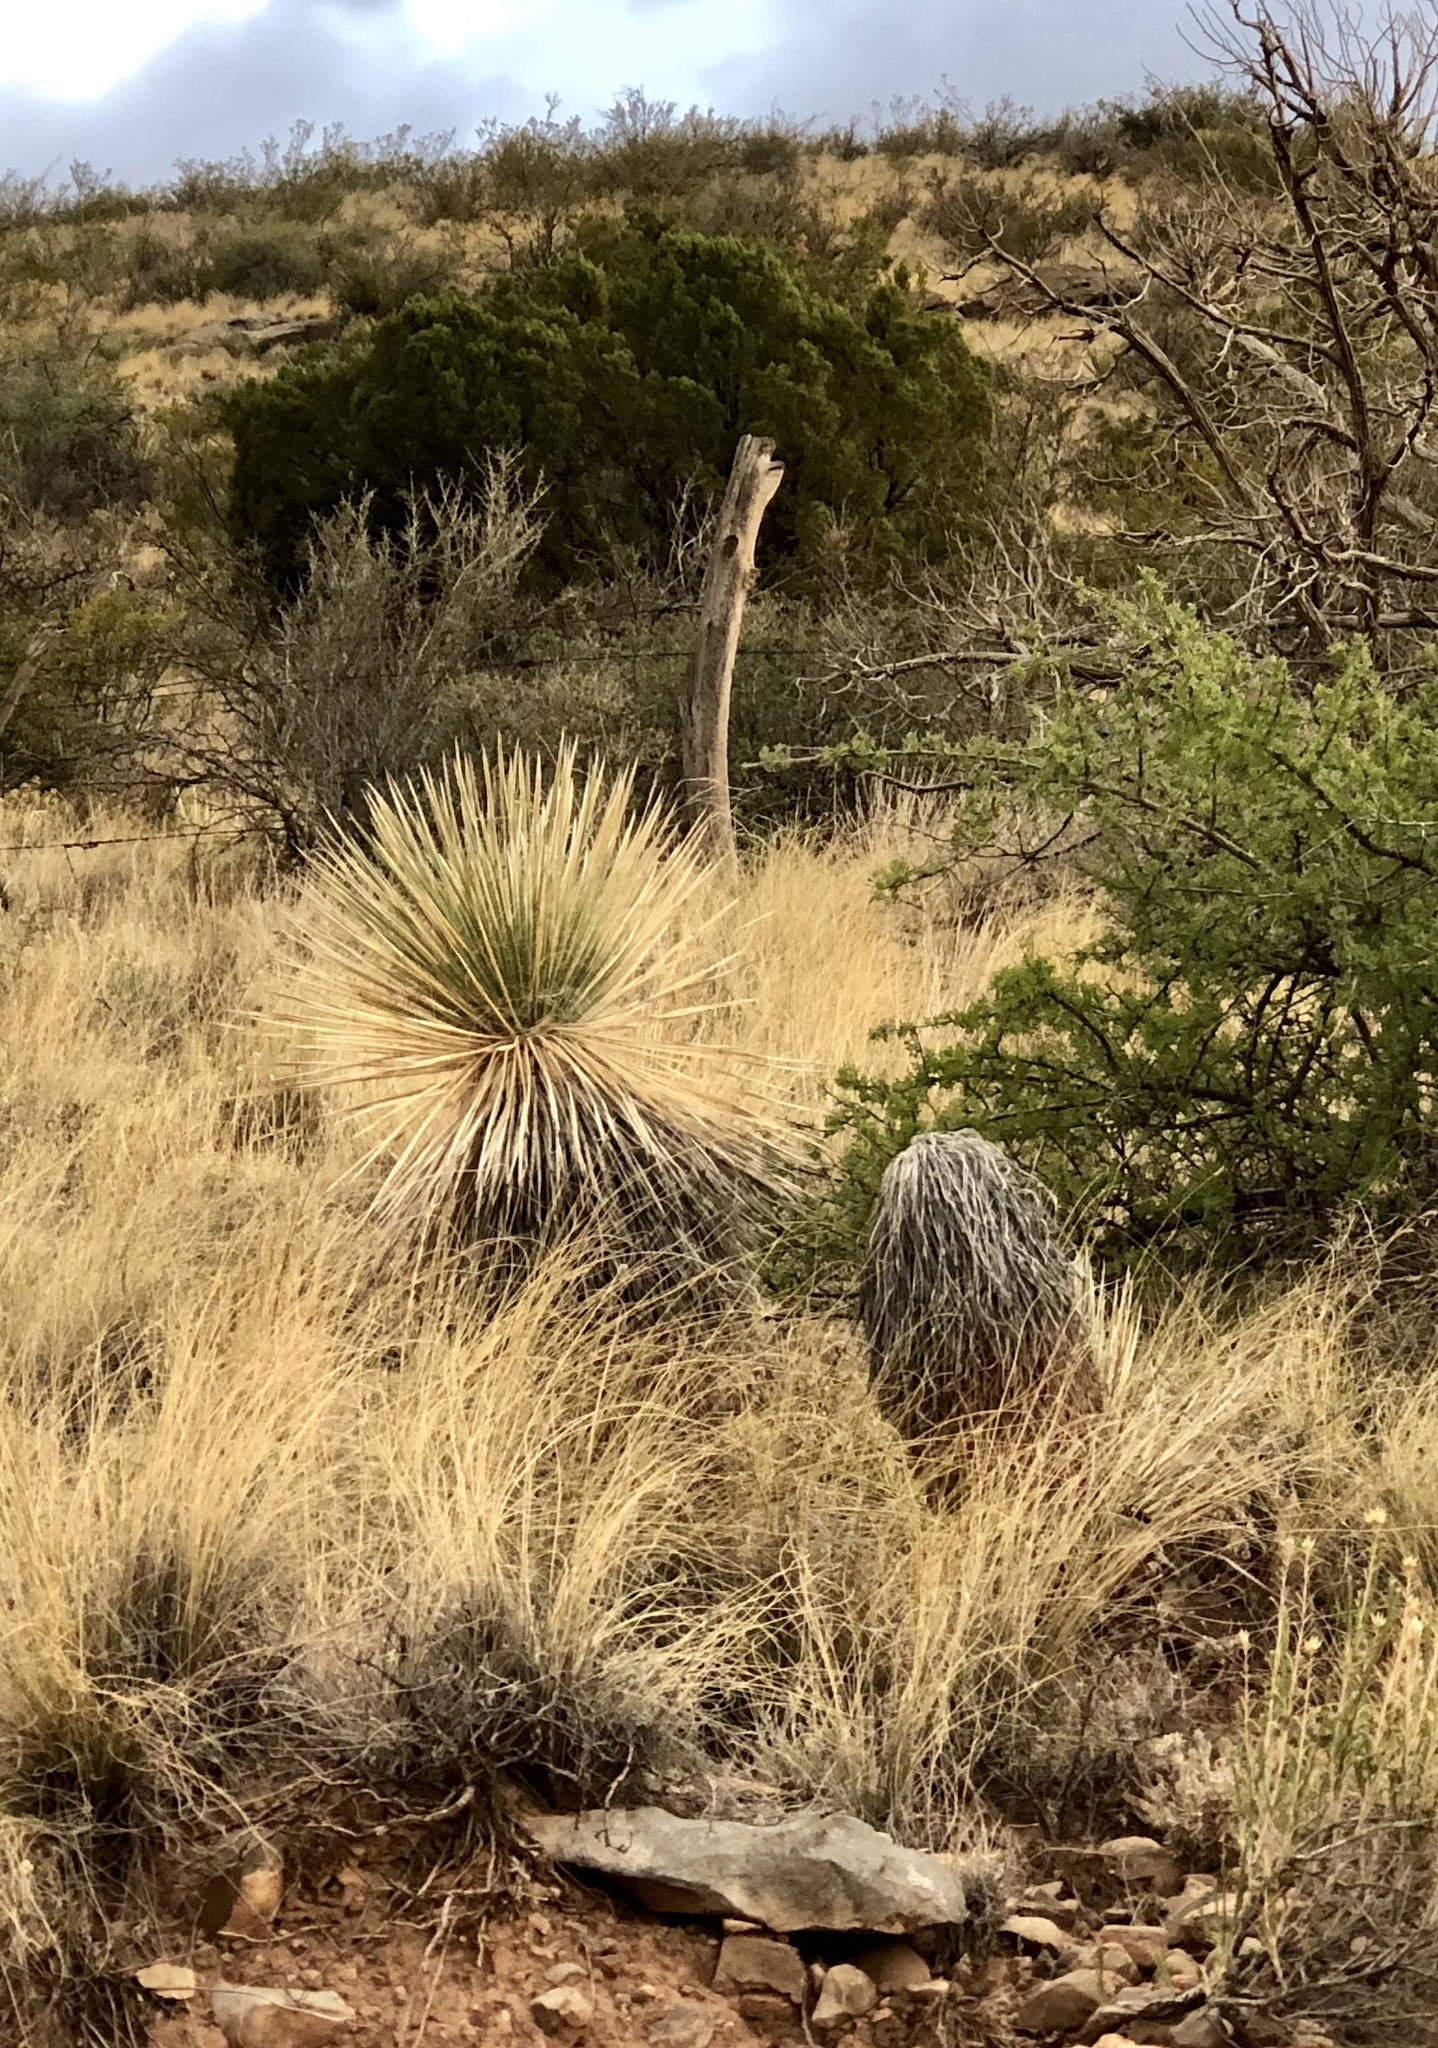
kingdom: Plantae
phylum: Tracheophyta
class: Liliopsida
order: Asparagales
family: Asparagaceae
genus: Yucca
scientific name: Yucca elata
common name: Palmella
